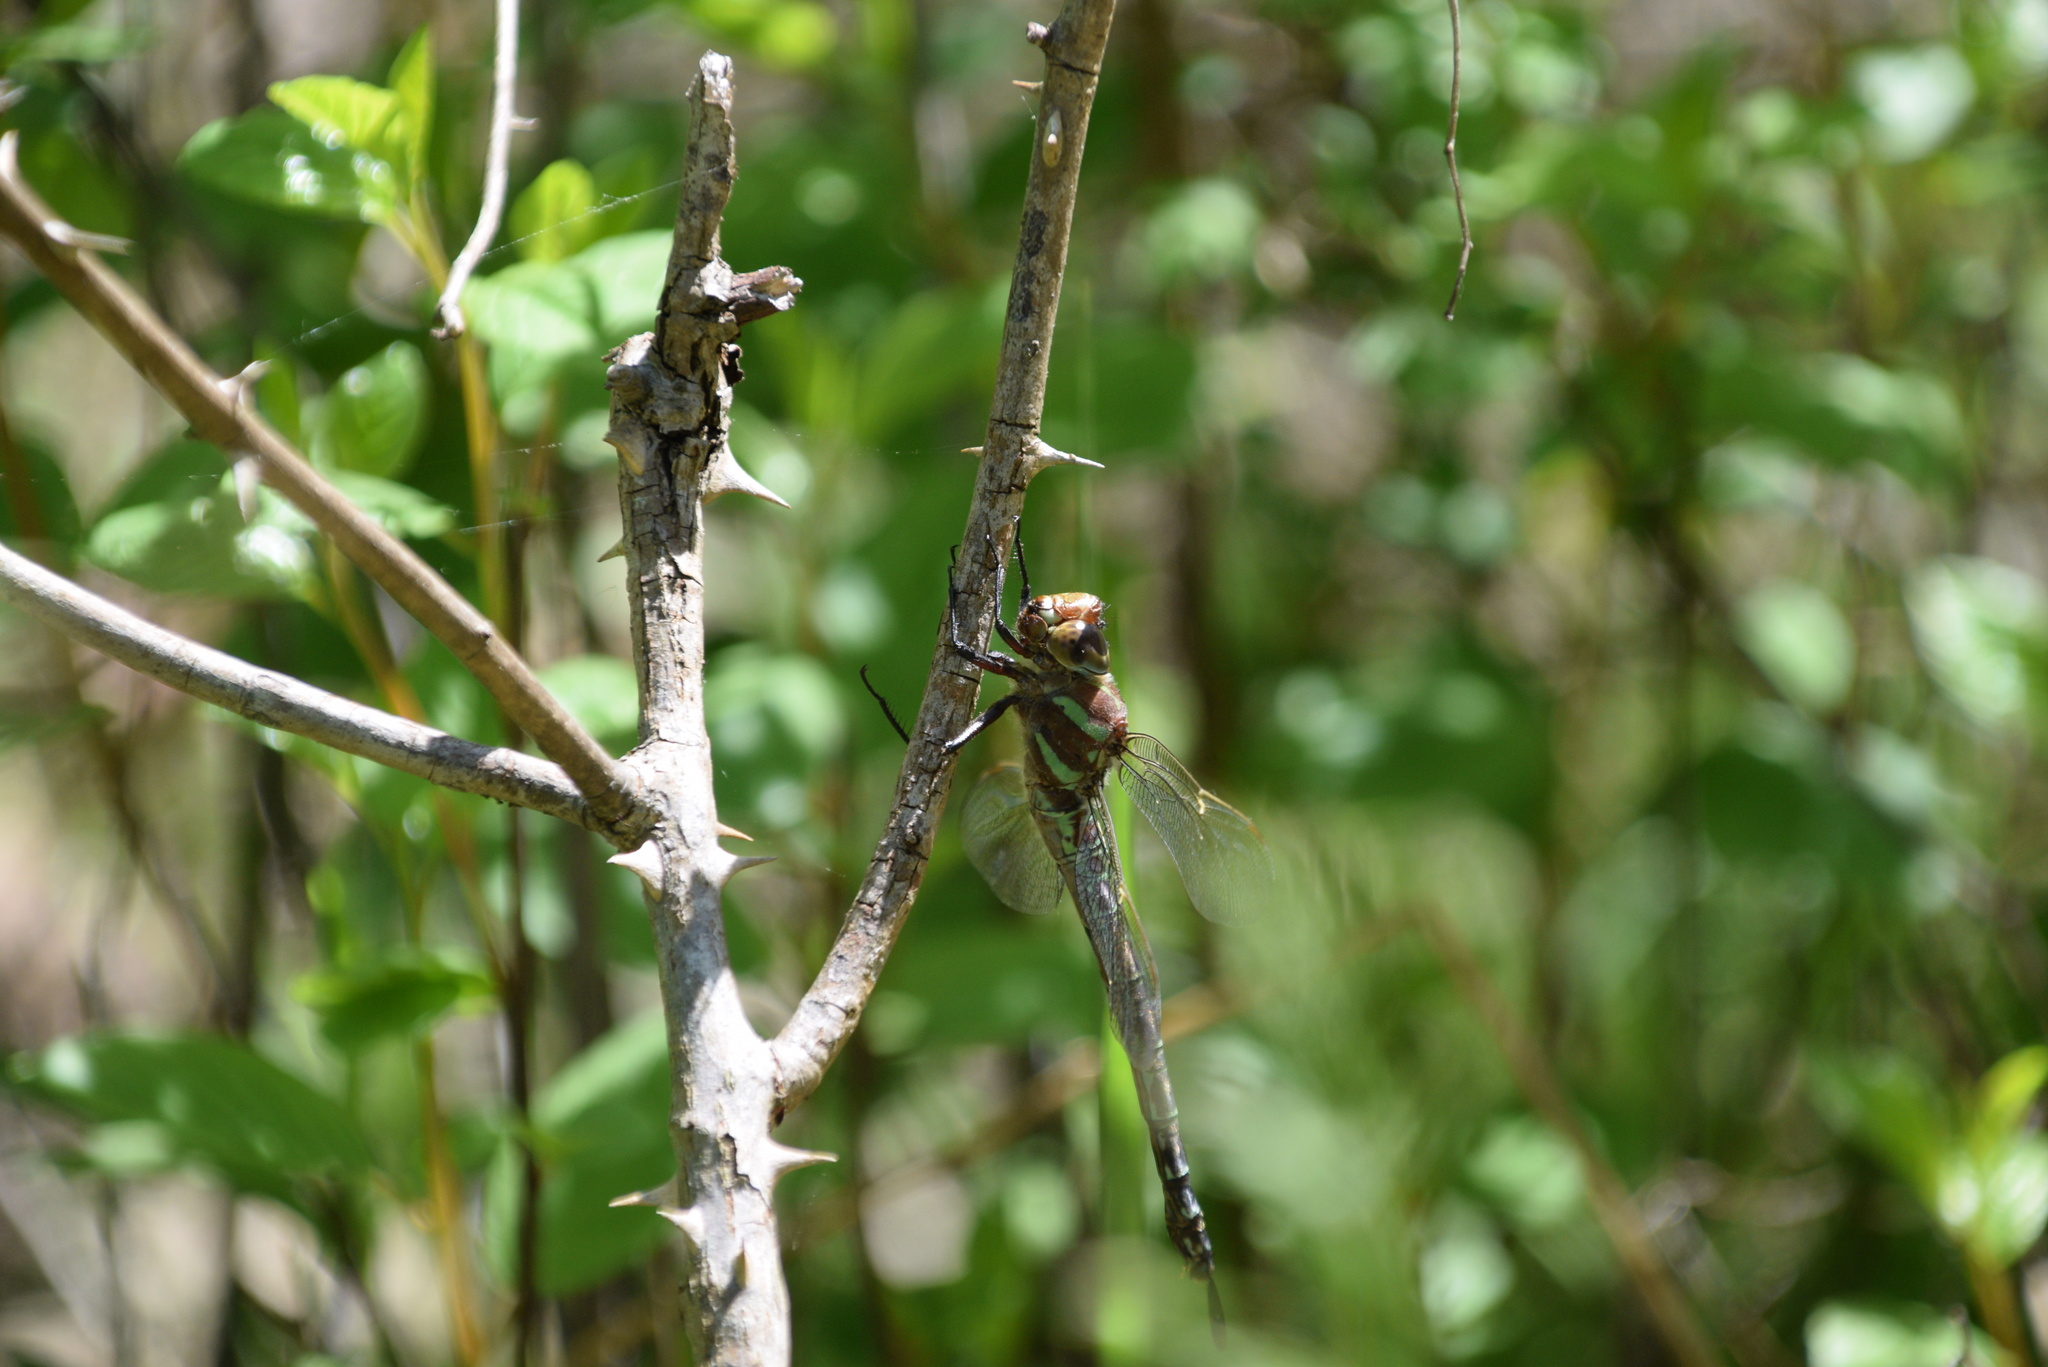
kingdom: Animalia
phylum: Arthropoda
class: Insecta
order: Odonata
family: Aeshnidae
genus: Epiaeschna
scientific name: Epiaeschna heros
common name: Swamp darner
